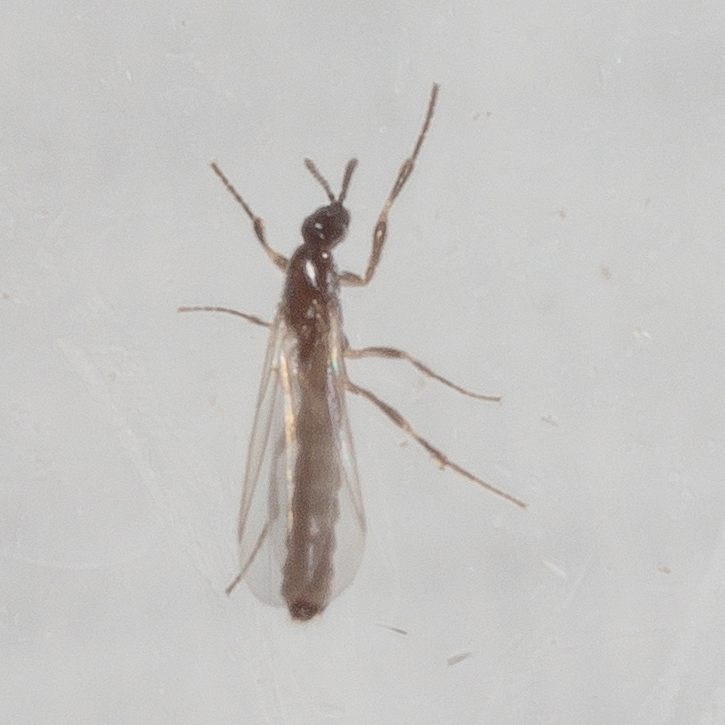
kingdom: Animalia
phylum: Arthropoda
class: Insecta
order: Diptera
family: Scatopsidae
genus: Psectrosciara
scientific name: Psectrosciara
